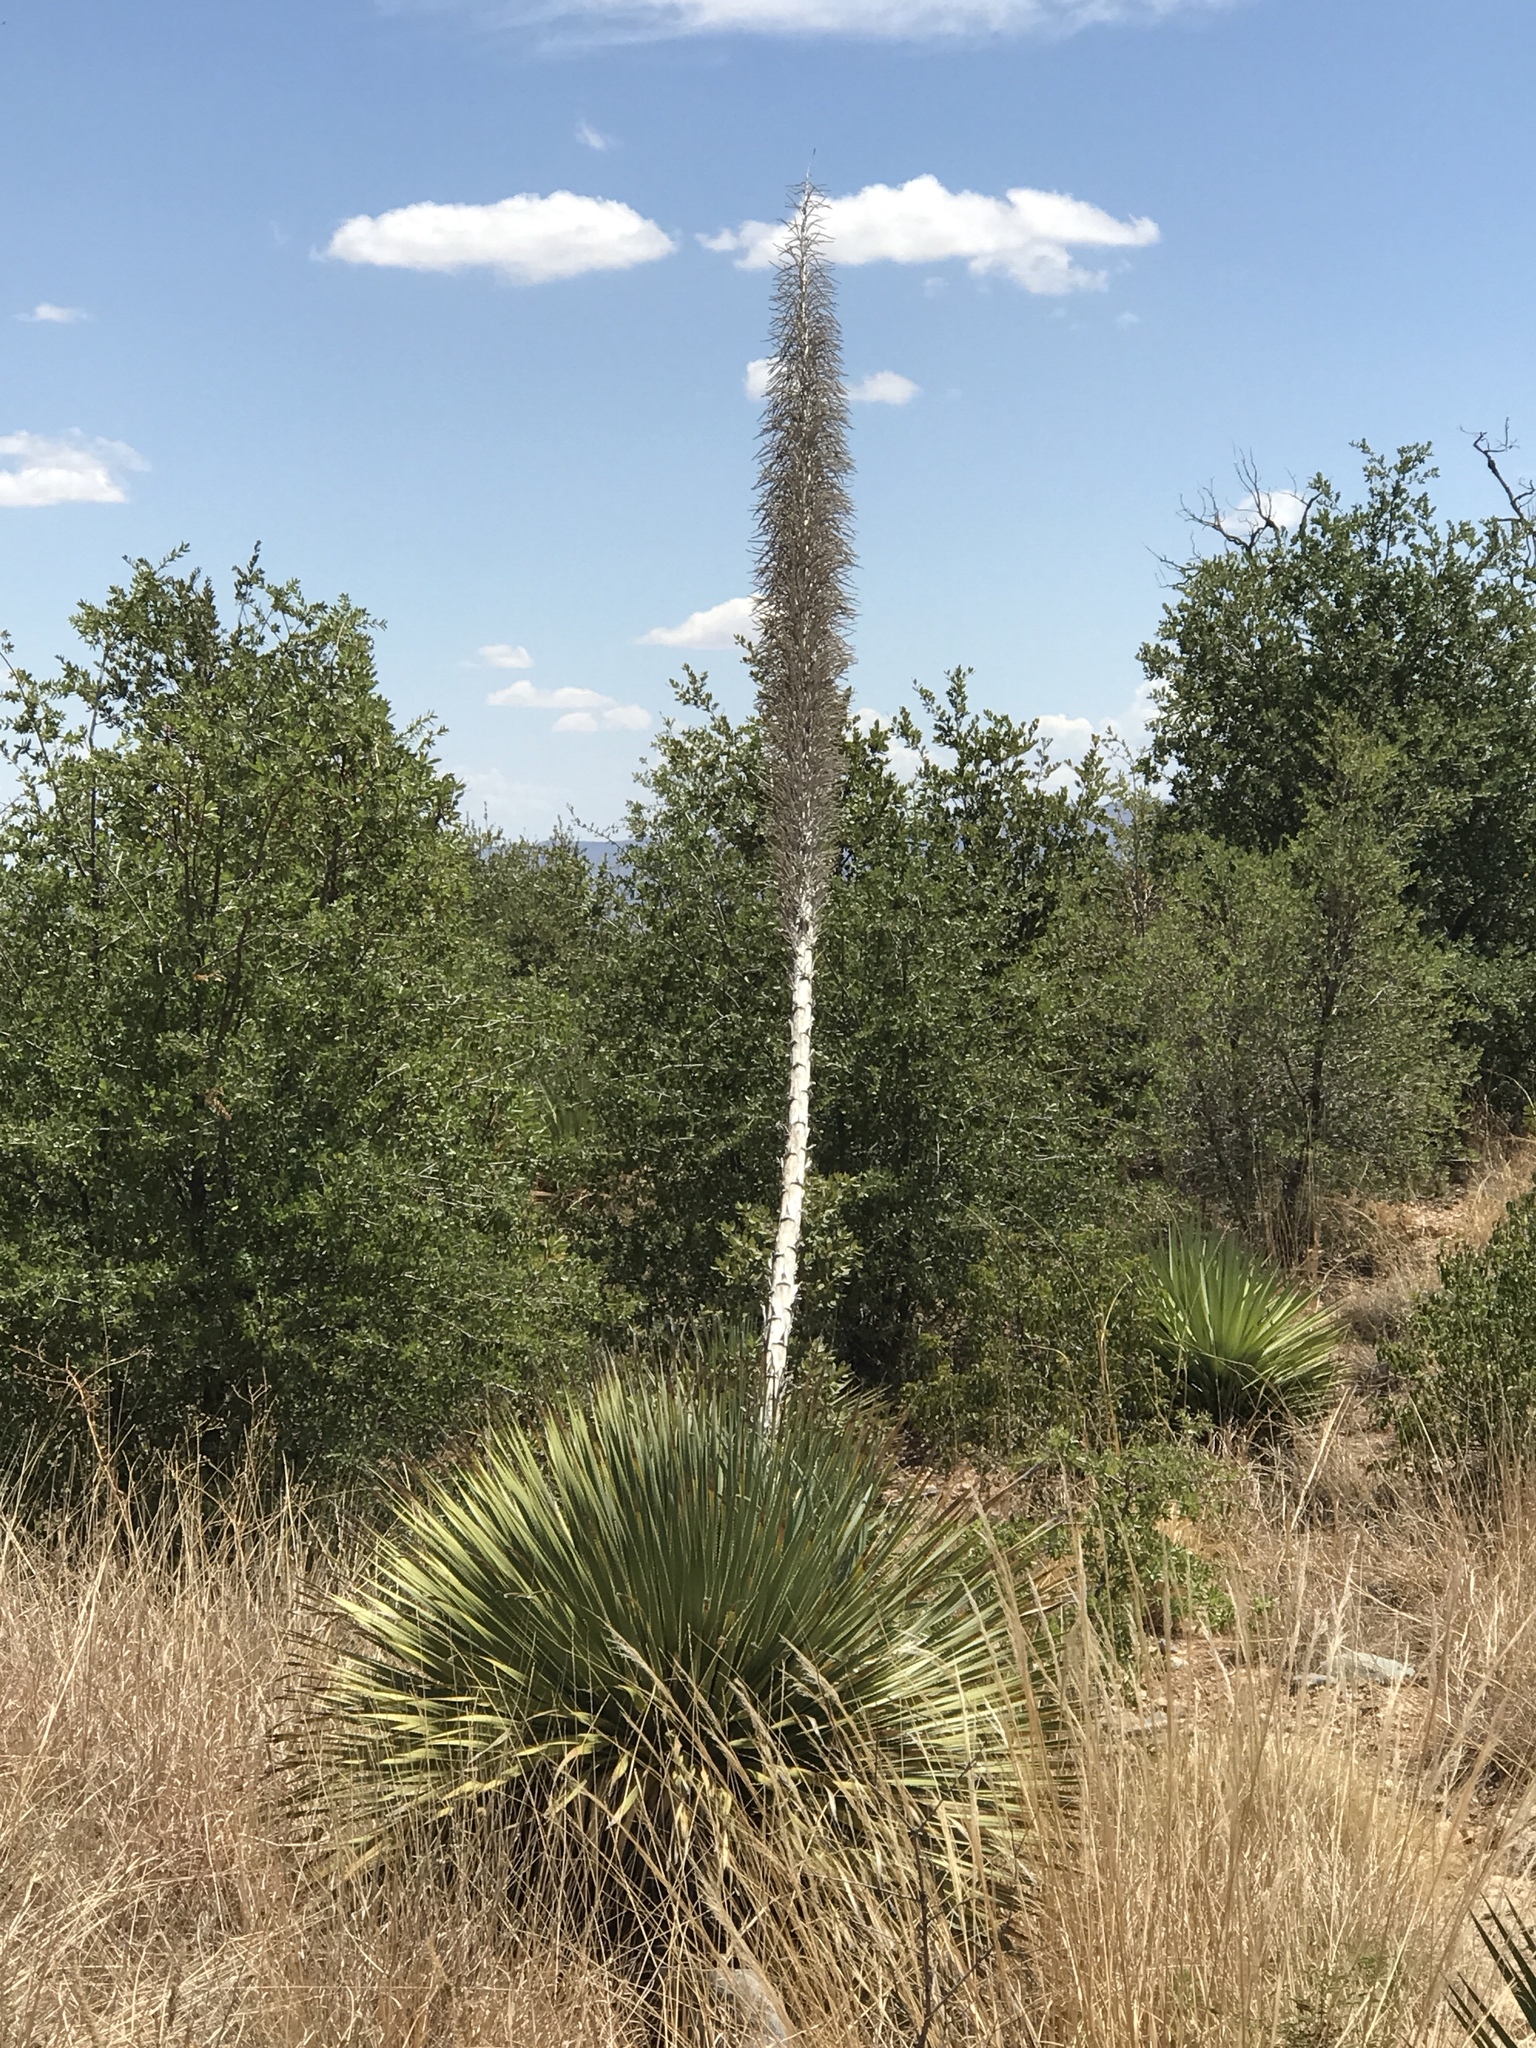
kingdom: Plantae
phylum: Tracheophyta
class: Liliopsida
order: Asparagales
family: Asparagaceae
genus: Dasylirion
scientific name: Dasylirion wheeleri
